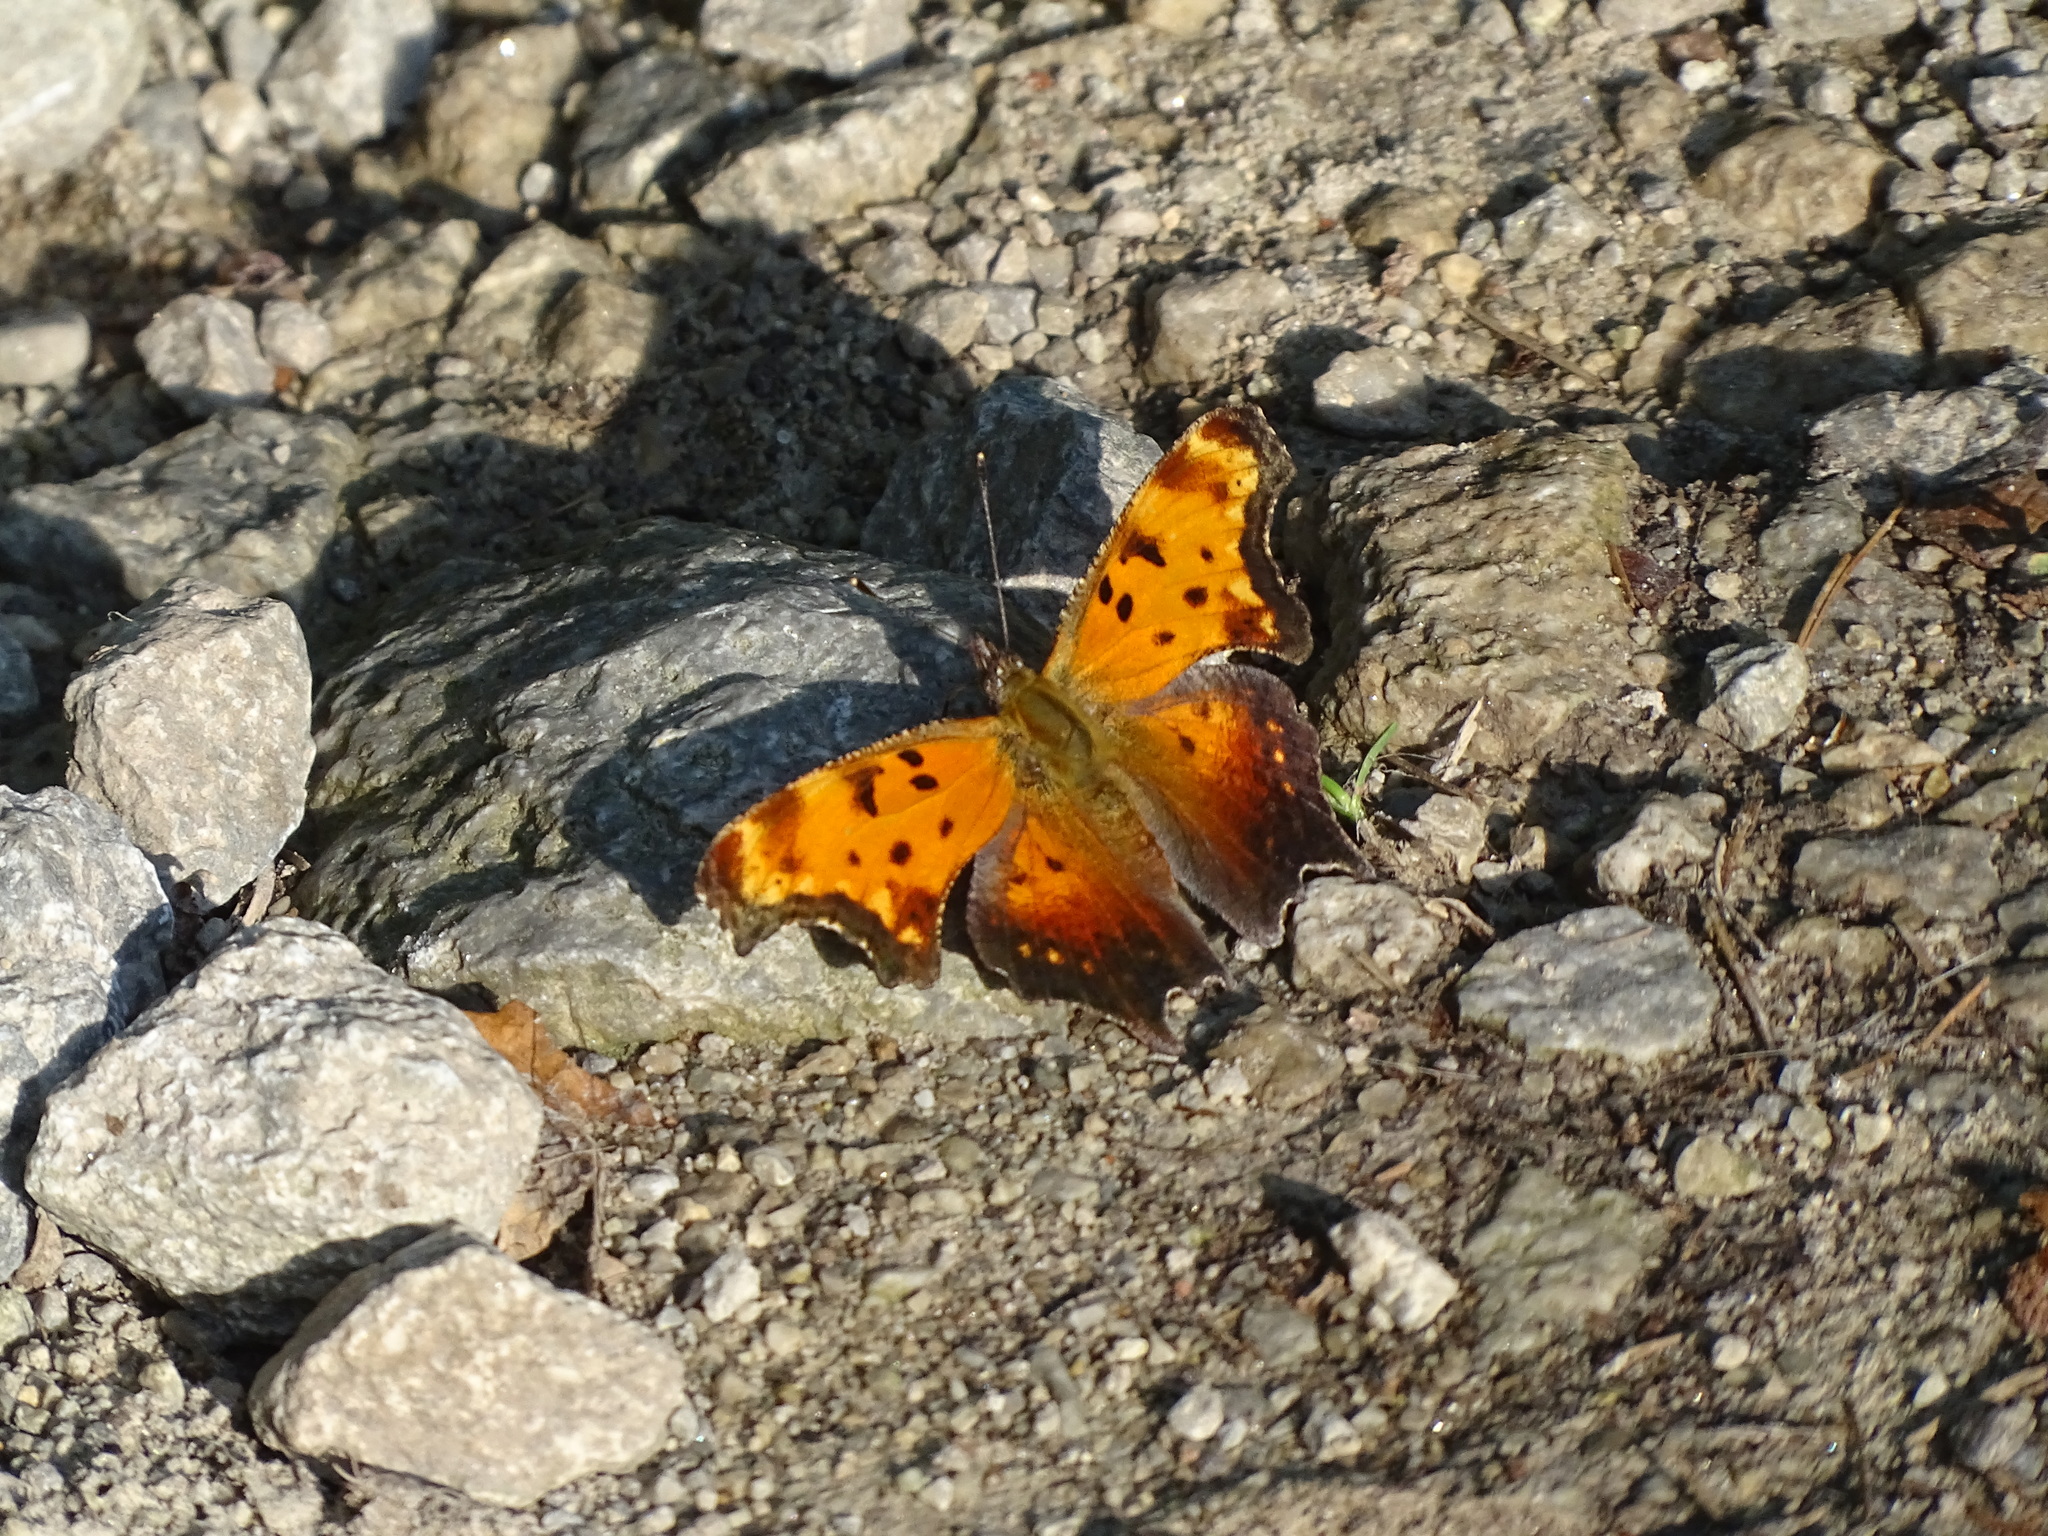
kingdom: Animalia
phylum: Arthropoda
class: Insecta
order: Lepidoptera
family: Nymphalidae
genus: Polygonia
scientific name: Polygonia progne
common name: Gray comma
